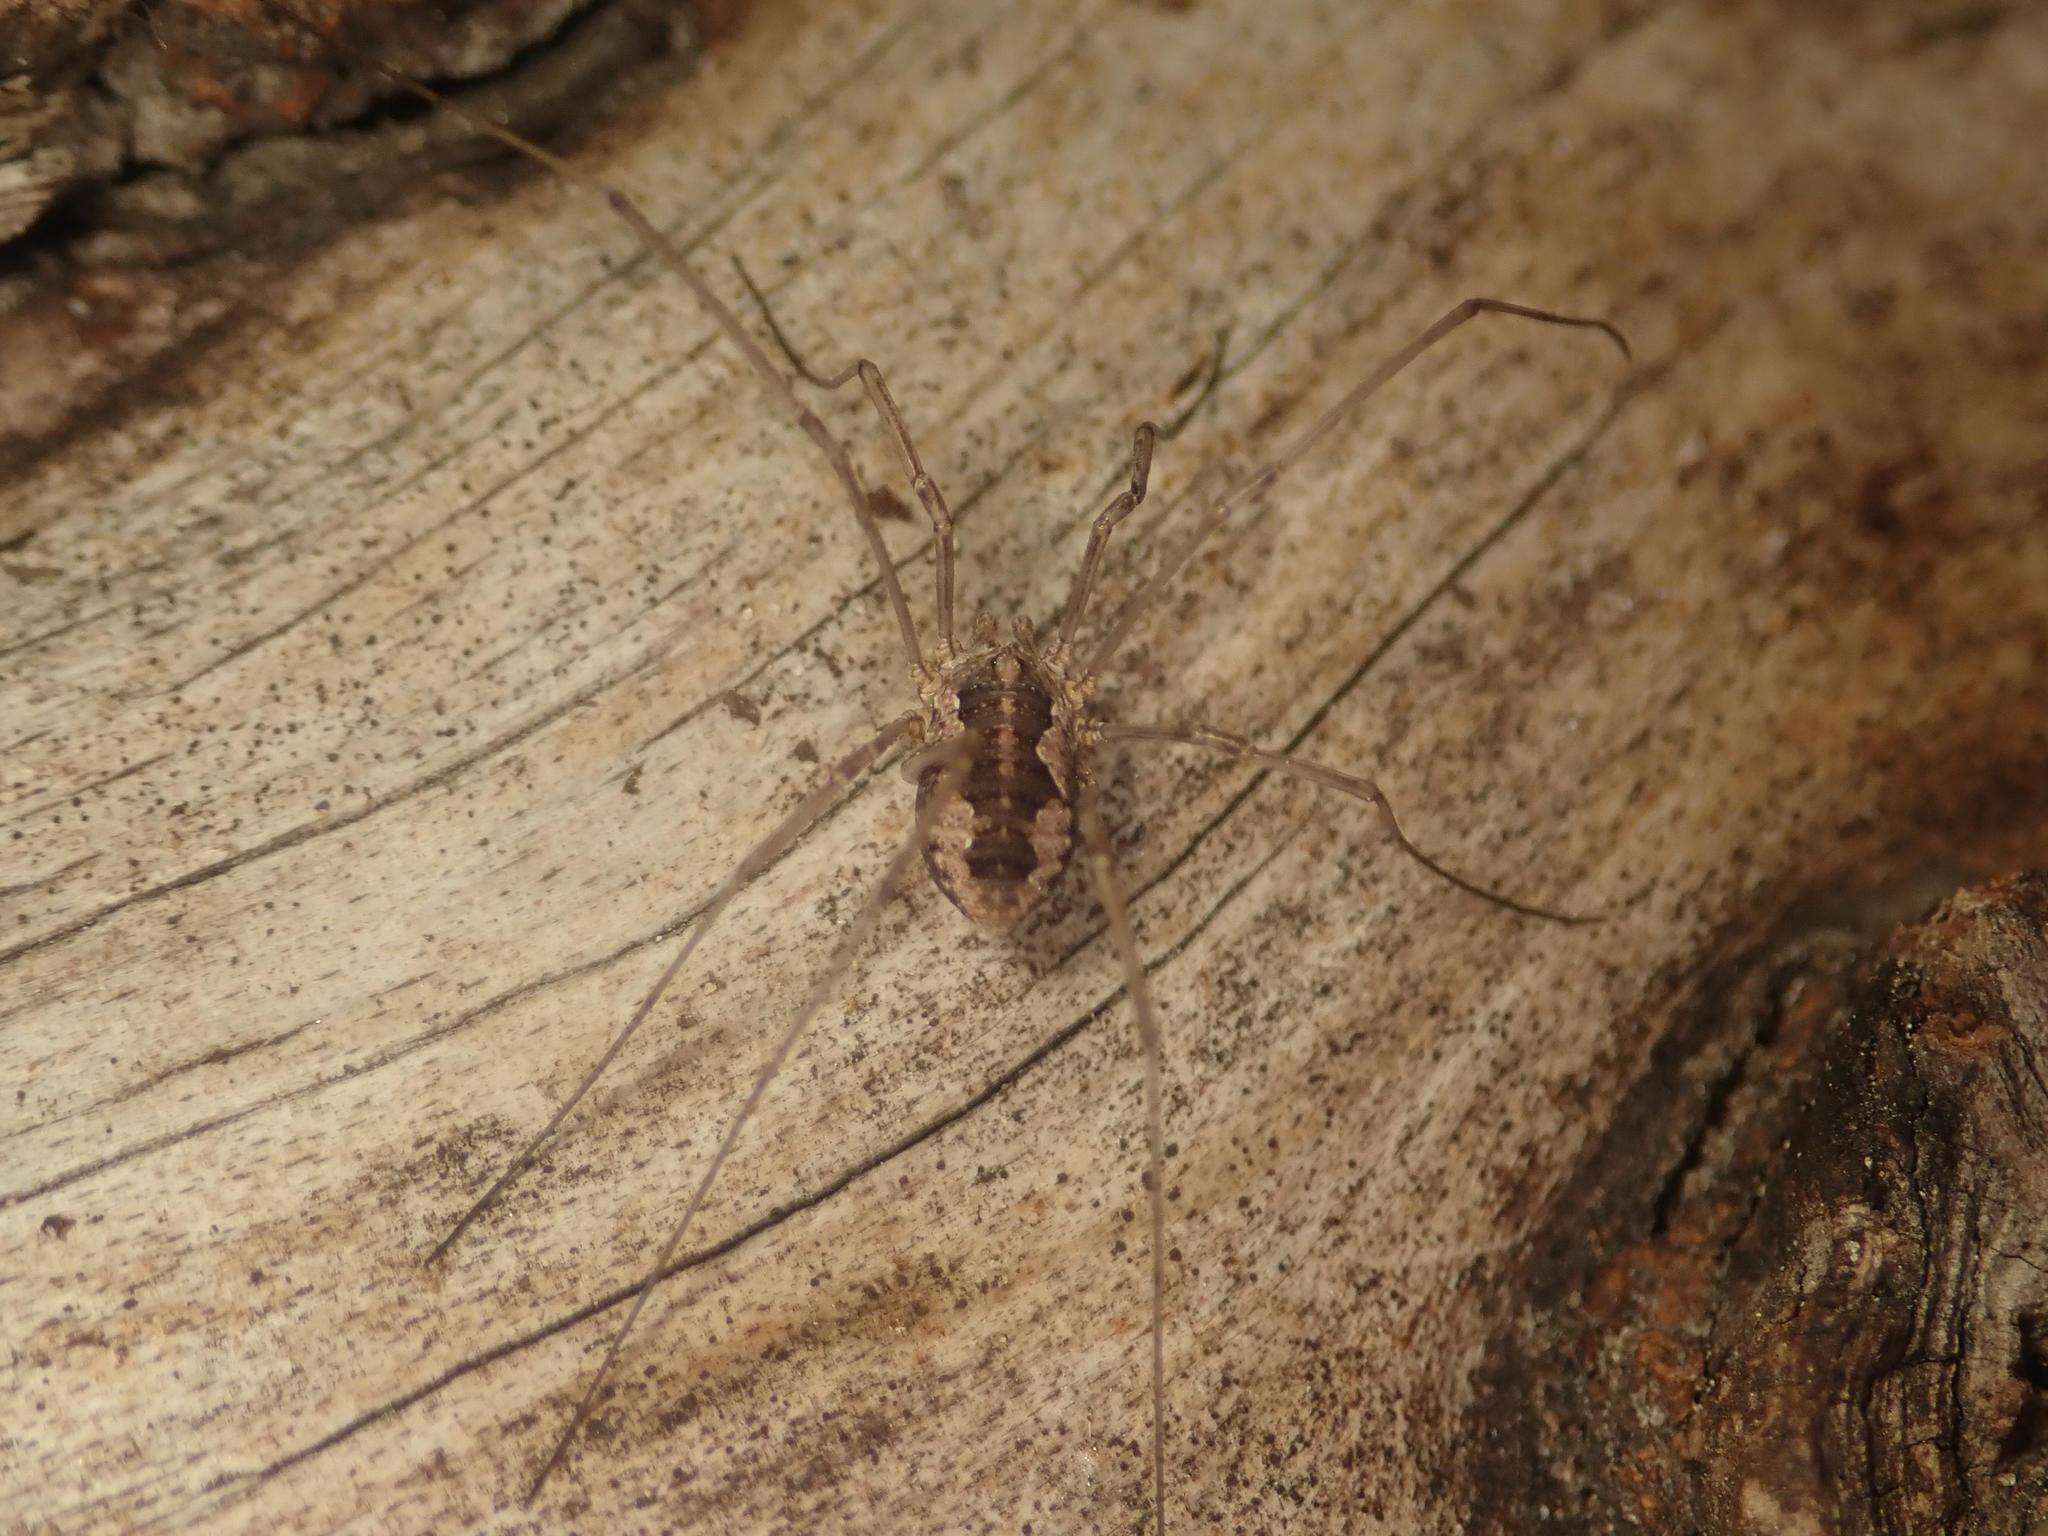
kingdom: Animalia
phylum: Arthropoda
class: Arachnida
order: Opiliones
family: Phalangiidae
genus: Phalangium
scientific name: Phalangium opilio
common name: Daddy longleg
